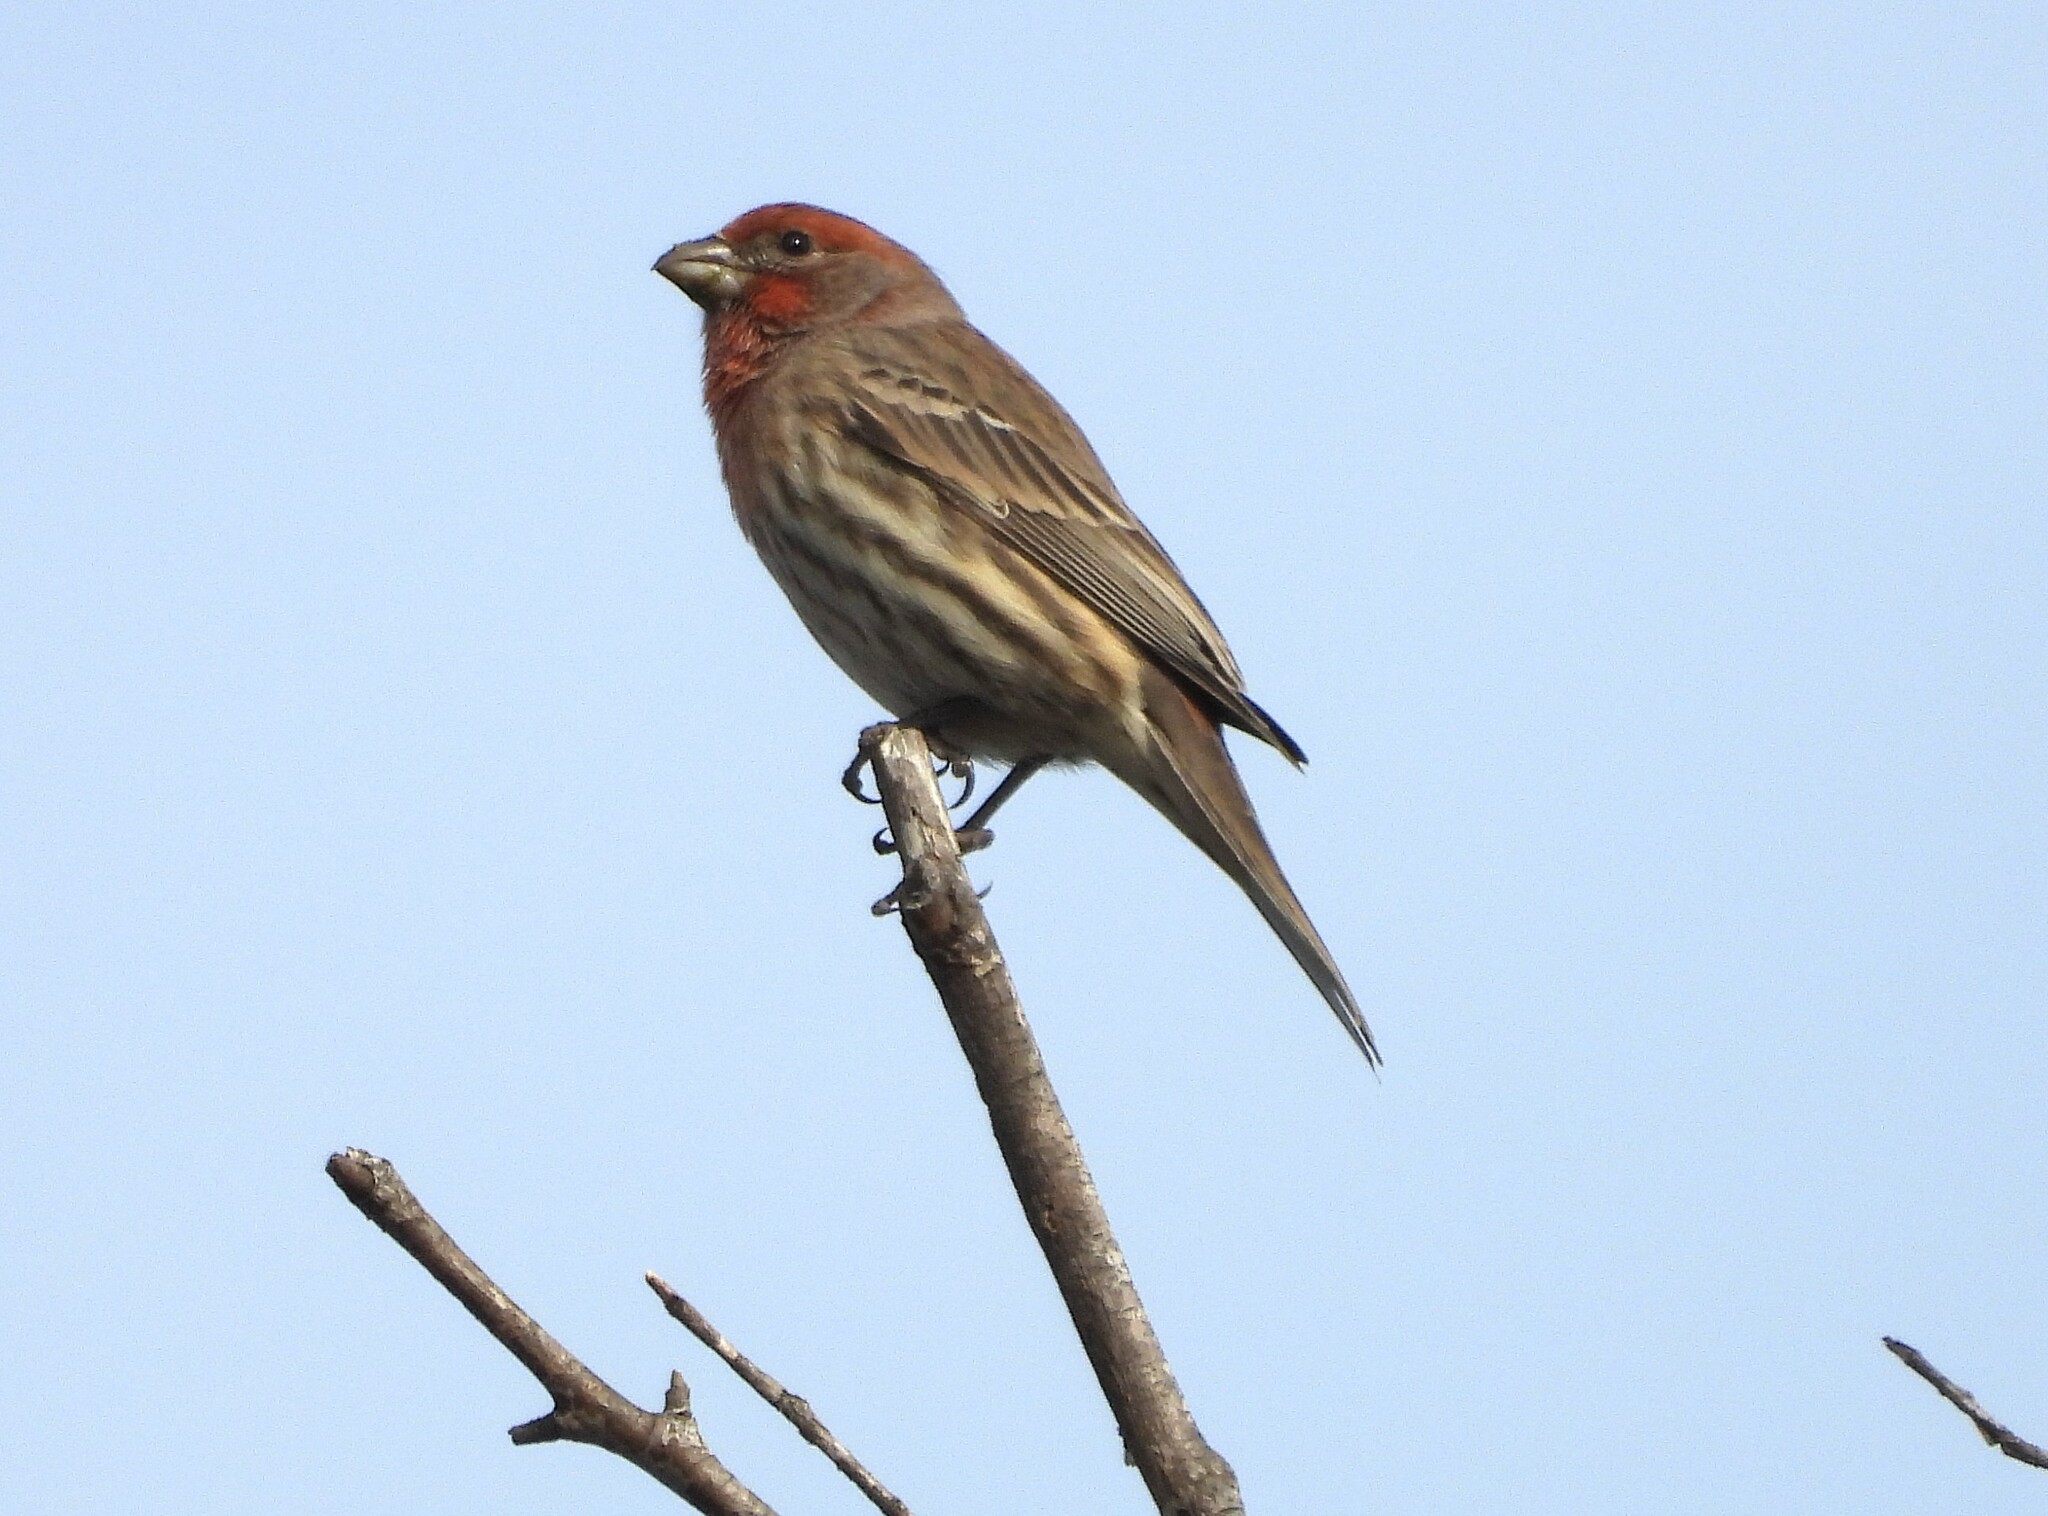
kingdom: Animalia
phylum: Chordata
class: Aves
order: Passeriformes
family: Fringillidae
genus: Haemorhous
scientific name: Haemorhous mexicanus
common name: House finch
